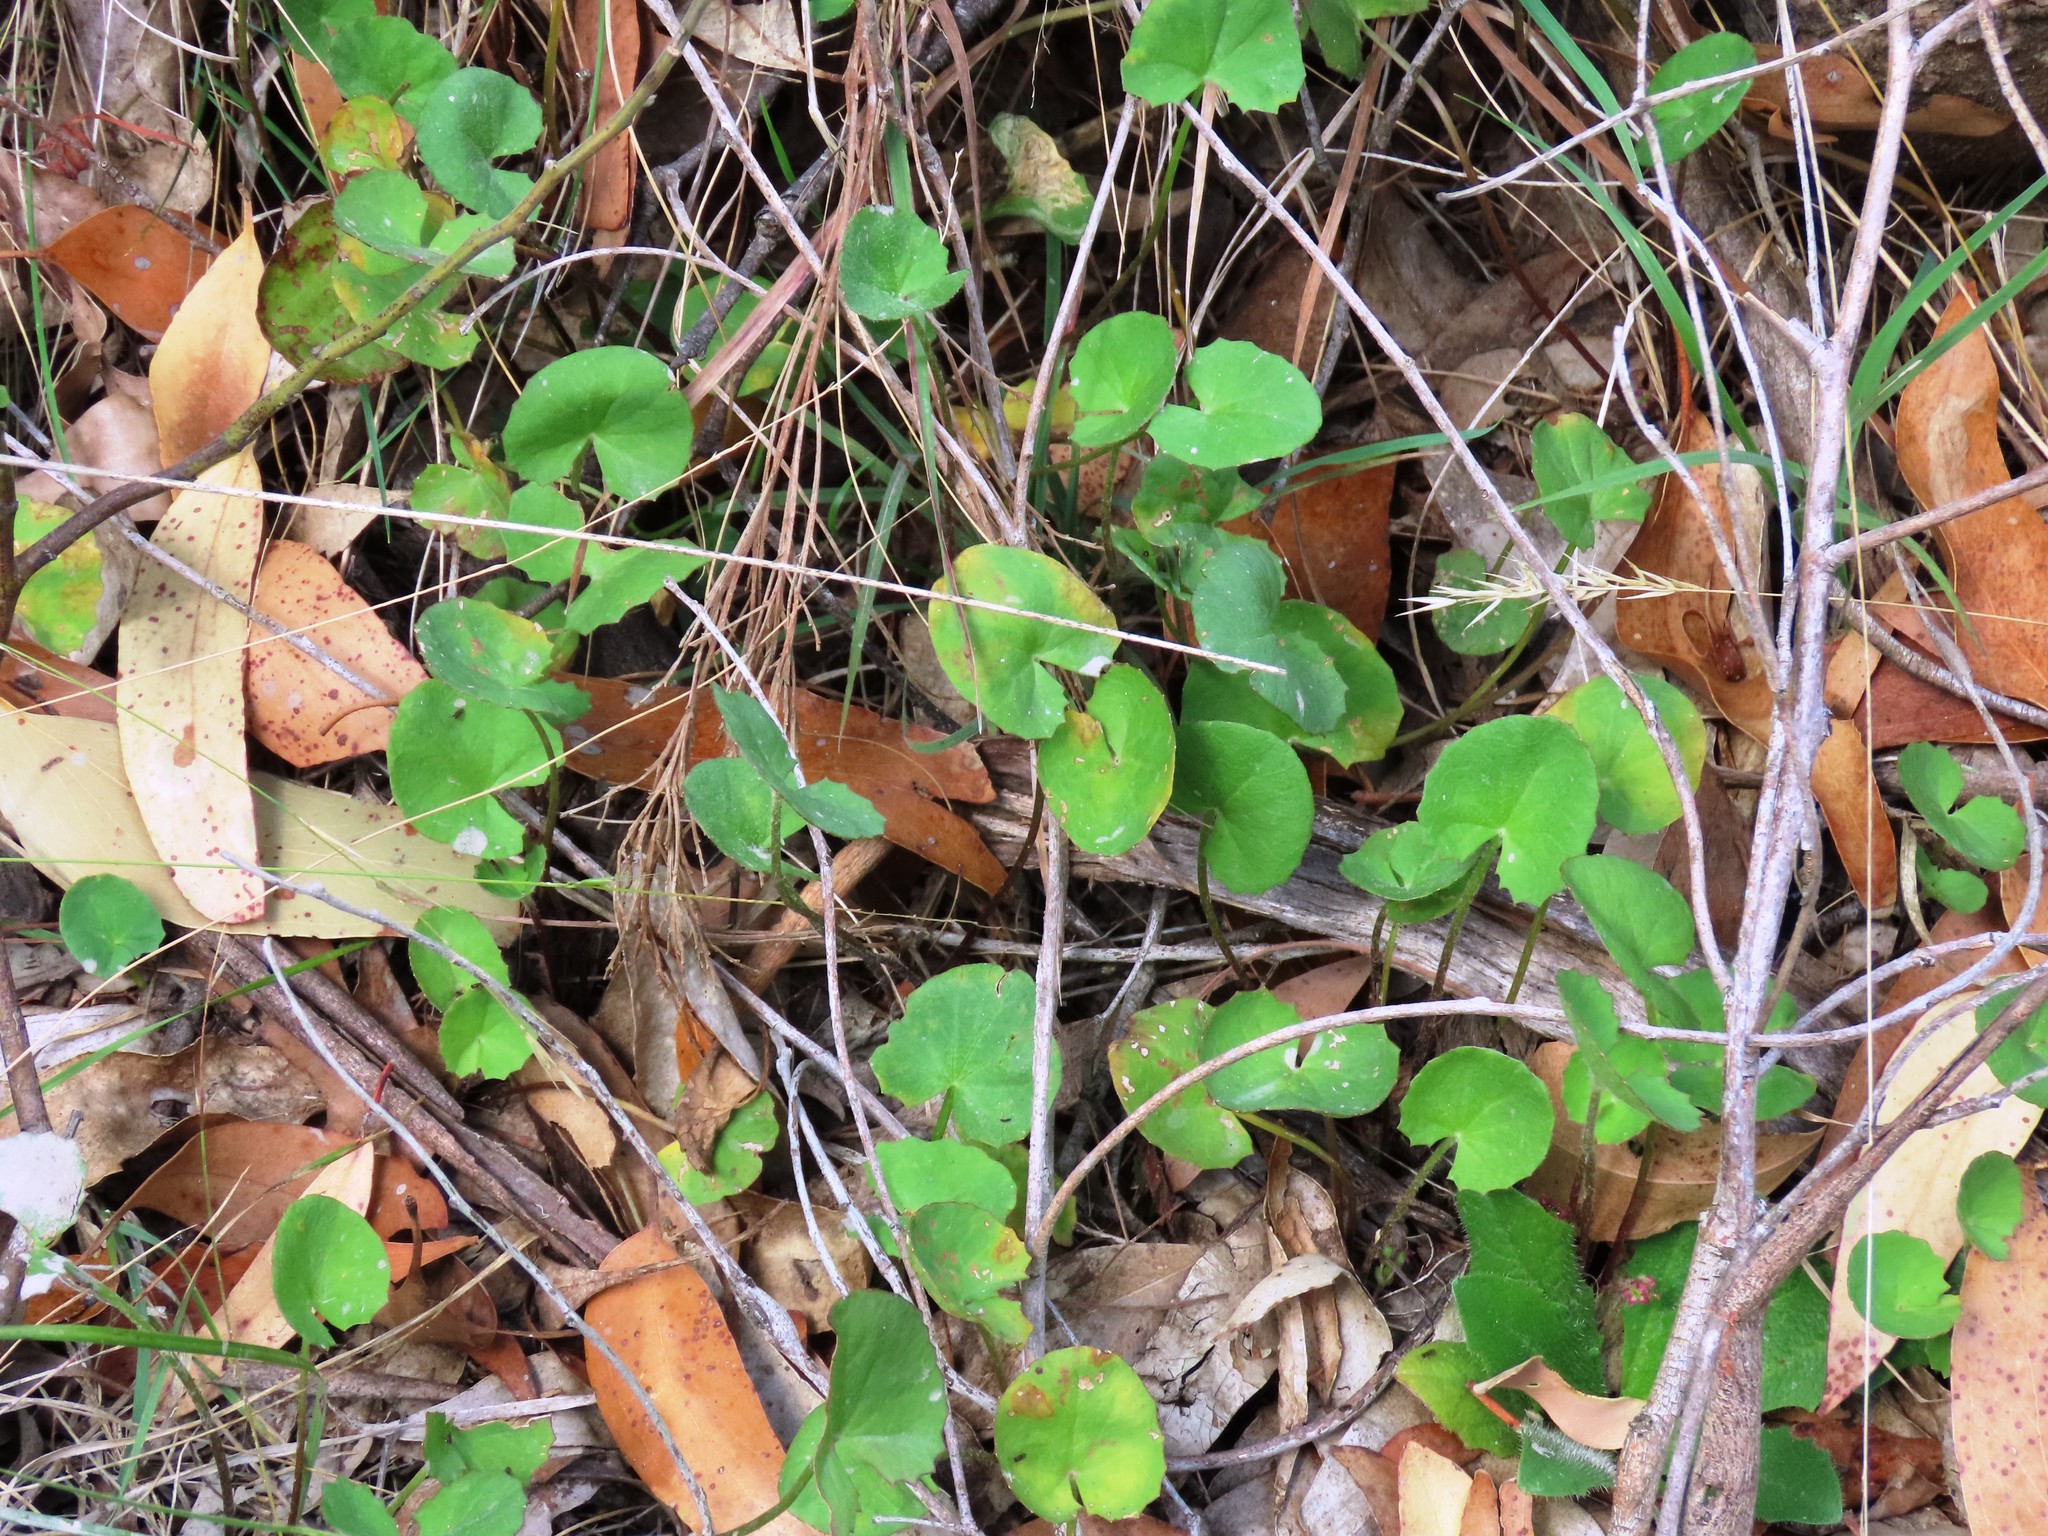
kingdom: Plantae
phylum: Tracheophyta
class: Magnoliopsida
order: Apiales
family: Apiaceae
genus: Centella
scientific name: Centella cordifolia
